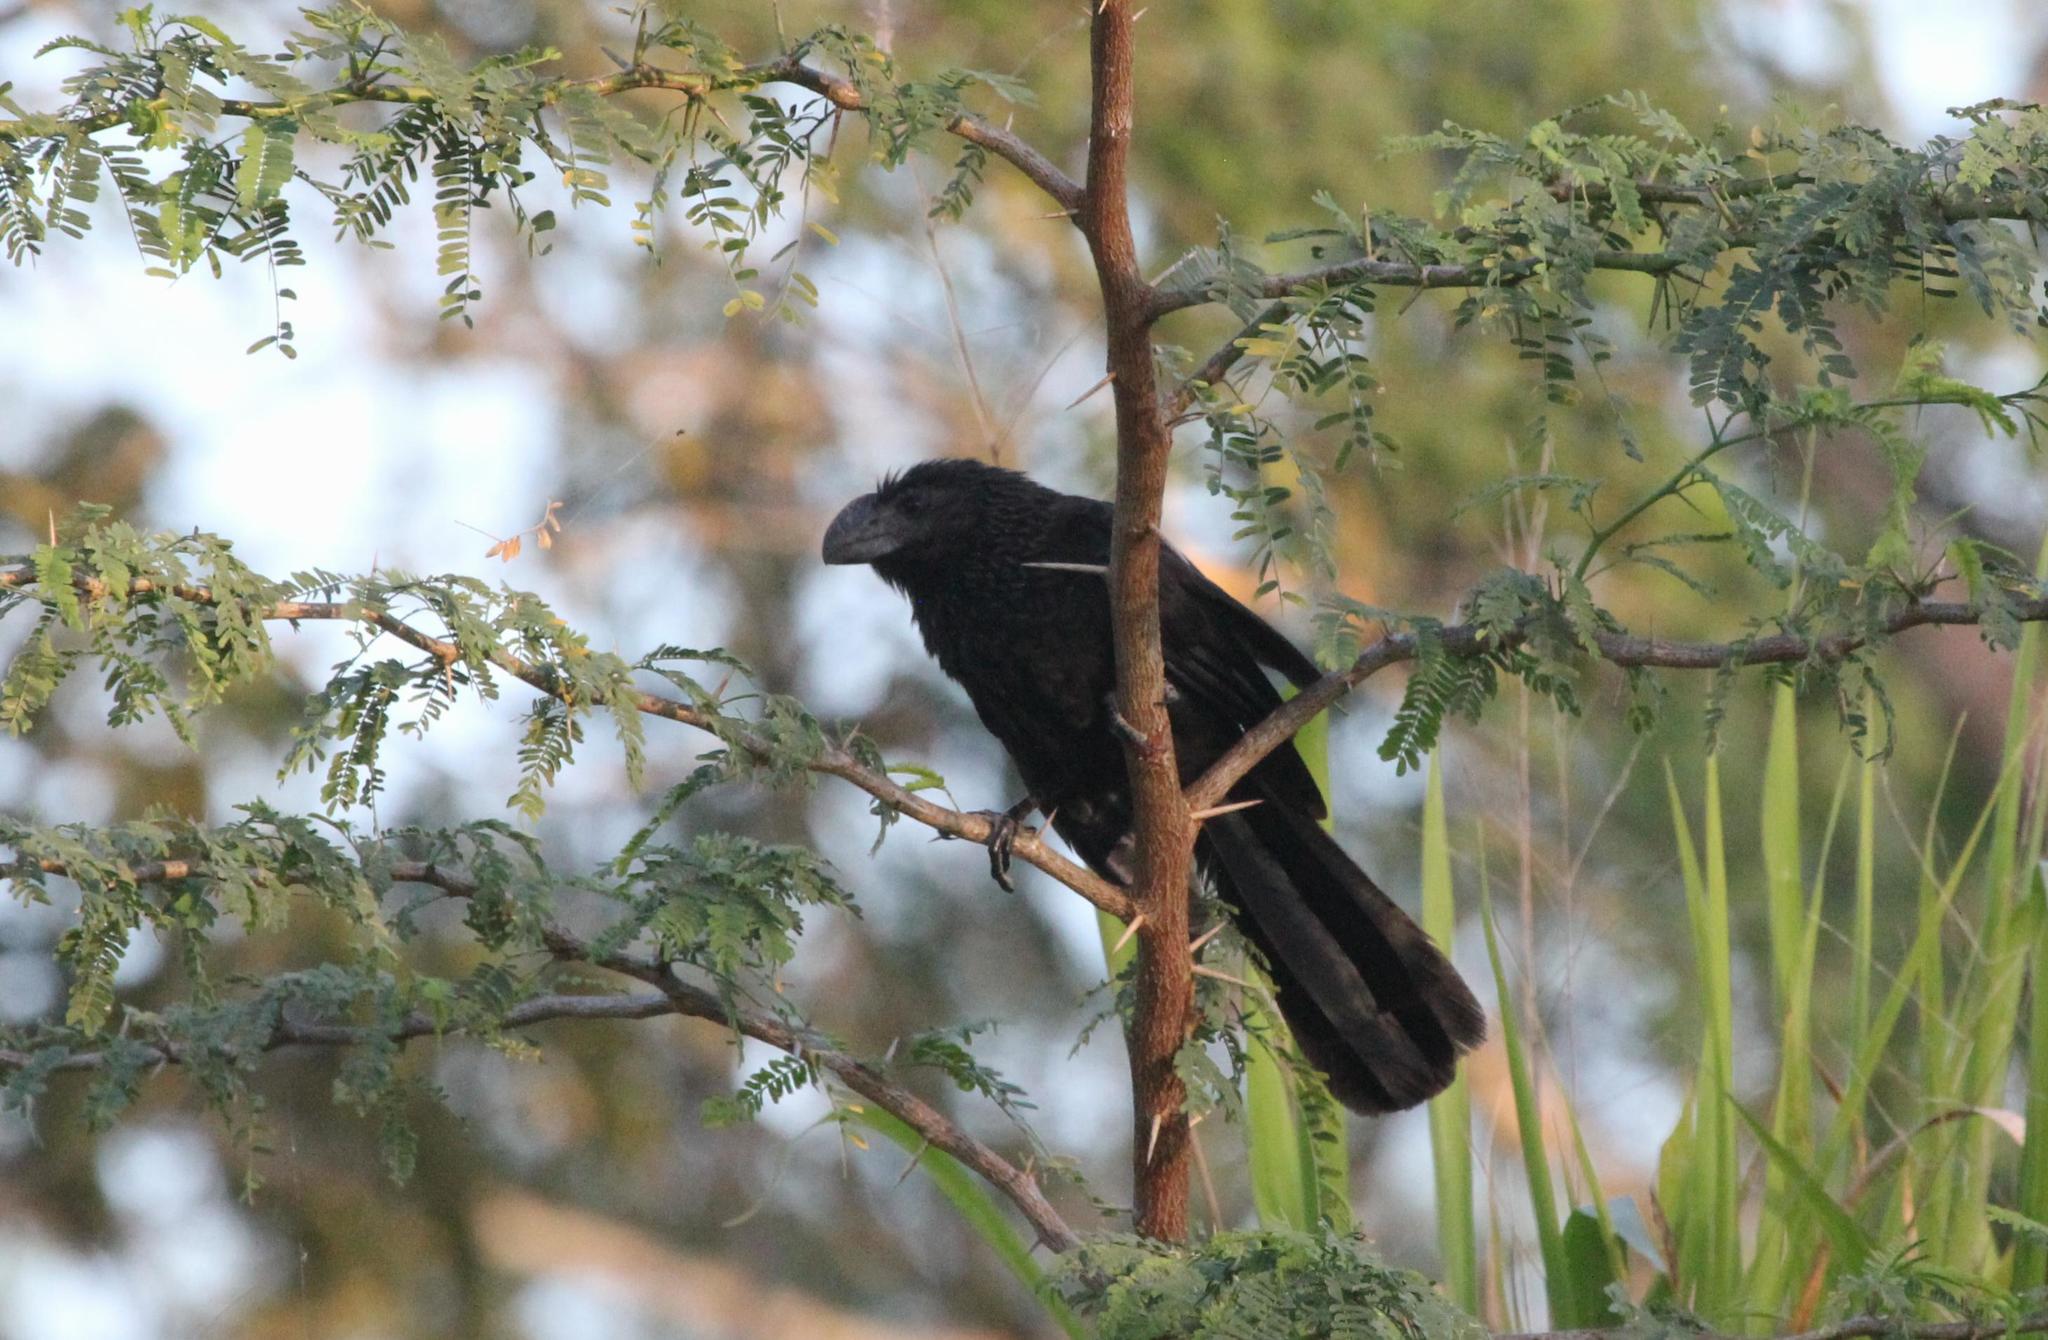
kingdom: Animalia
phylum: Chordata
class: Aves
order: Cuculiformes
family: Cuculidae
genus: Crotophaga
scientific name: Crotophaga ani
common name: Smooth-billed ani
